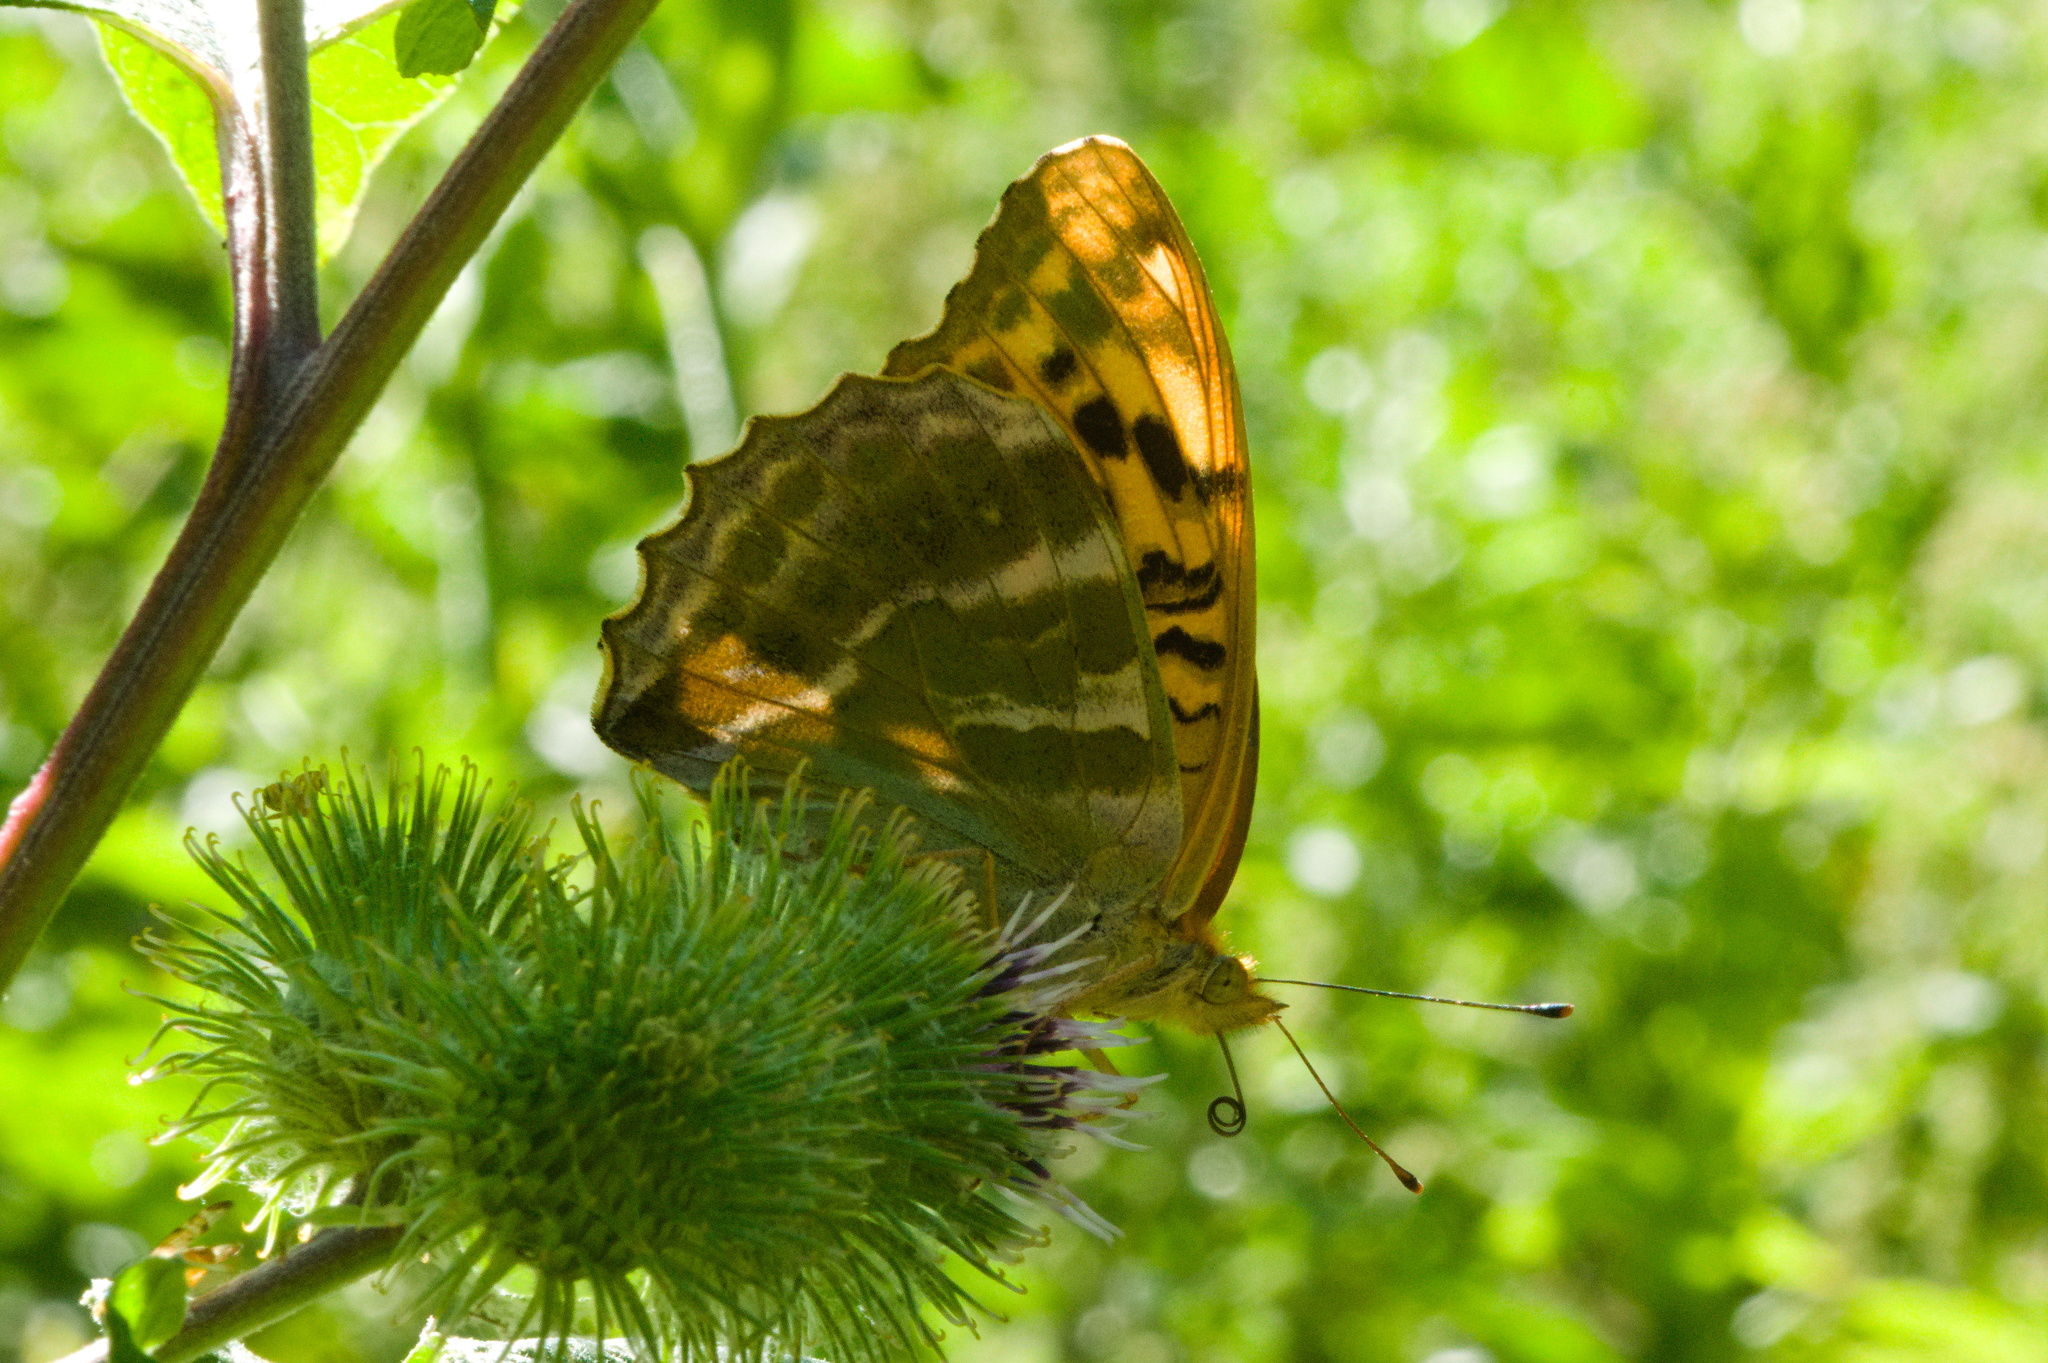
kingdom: Animalia
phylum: Arthropoda
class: Insecta
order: Lepidoptera
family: Nymphalidae
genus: Argynnis
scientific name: Argynnis paphia
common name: Silver-washed fritillary
